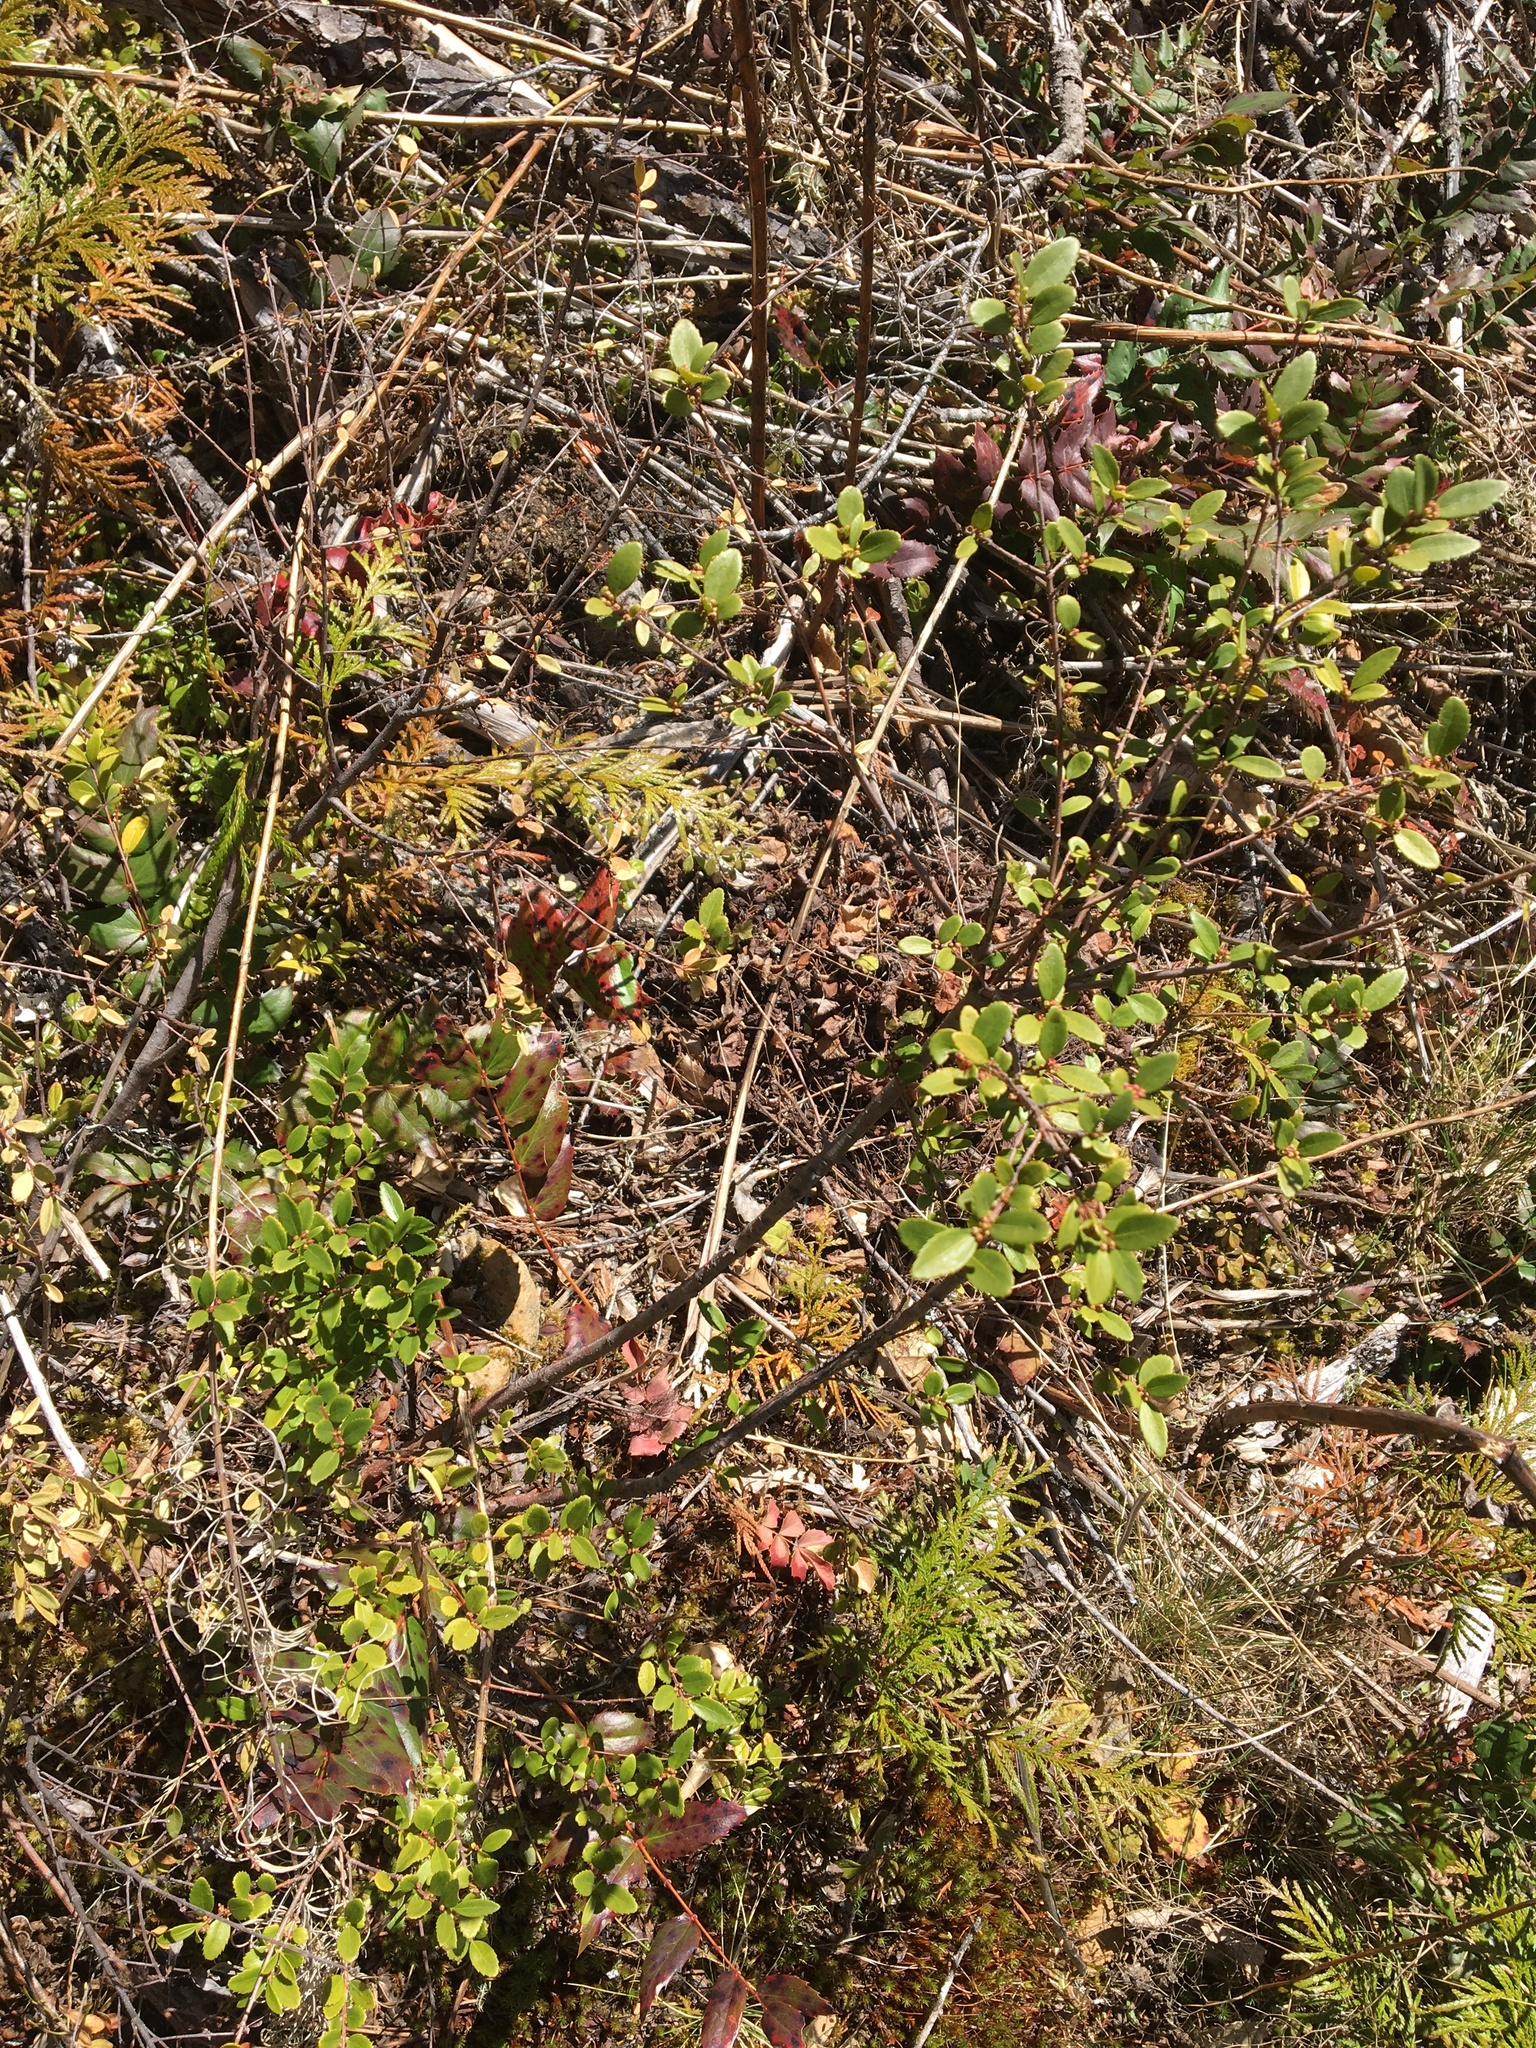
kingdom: Plantae
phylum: Tracheophyta
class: Magnoliopsida
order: Celastrales
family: Celastraceae
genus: Paxistima
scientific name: Paxistima myrsinites
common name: Mountain-lover
